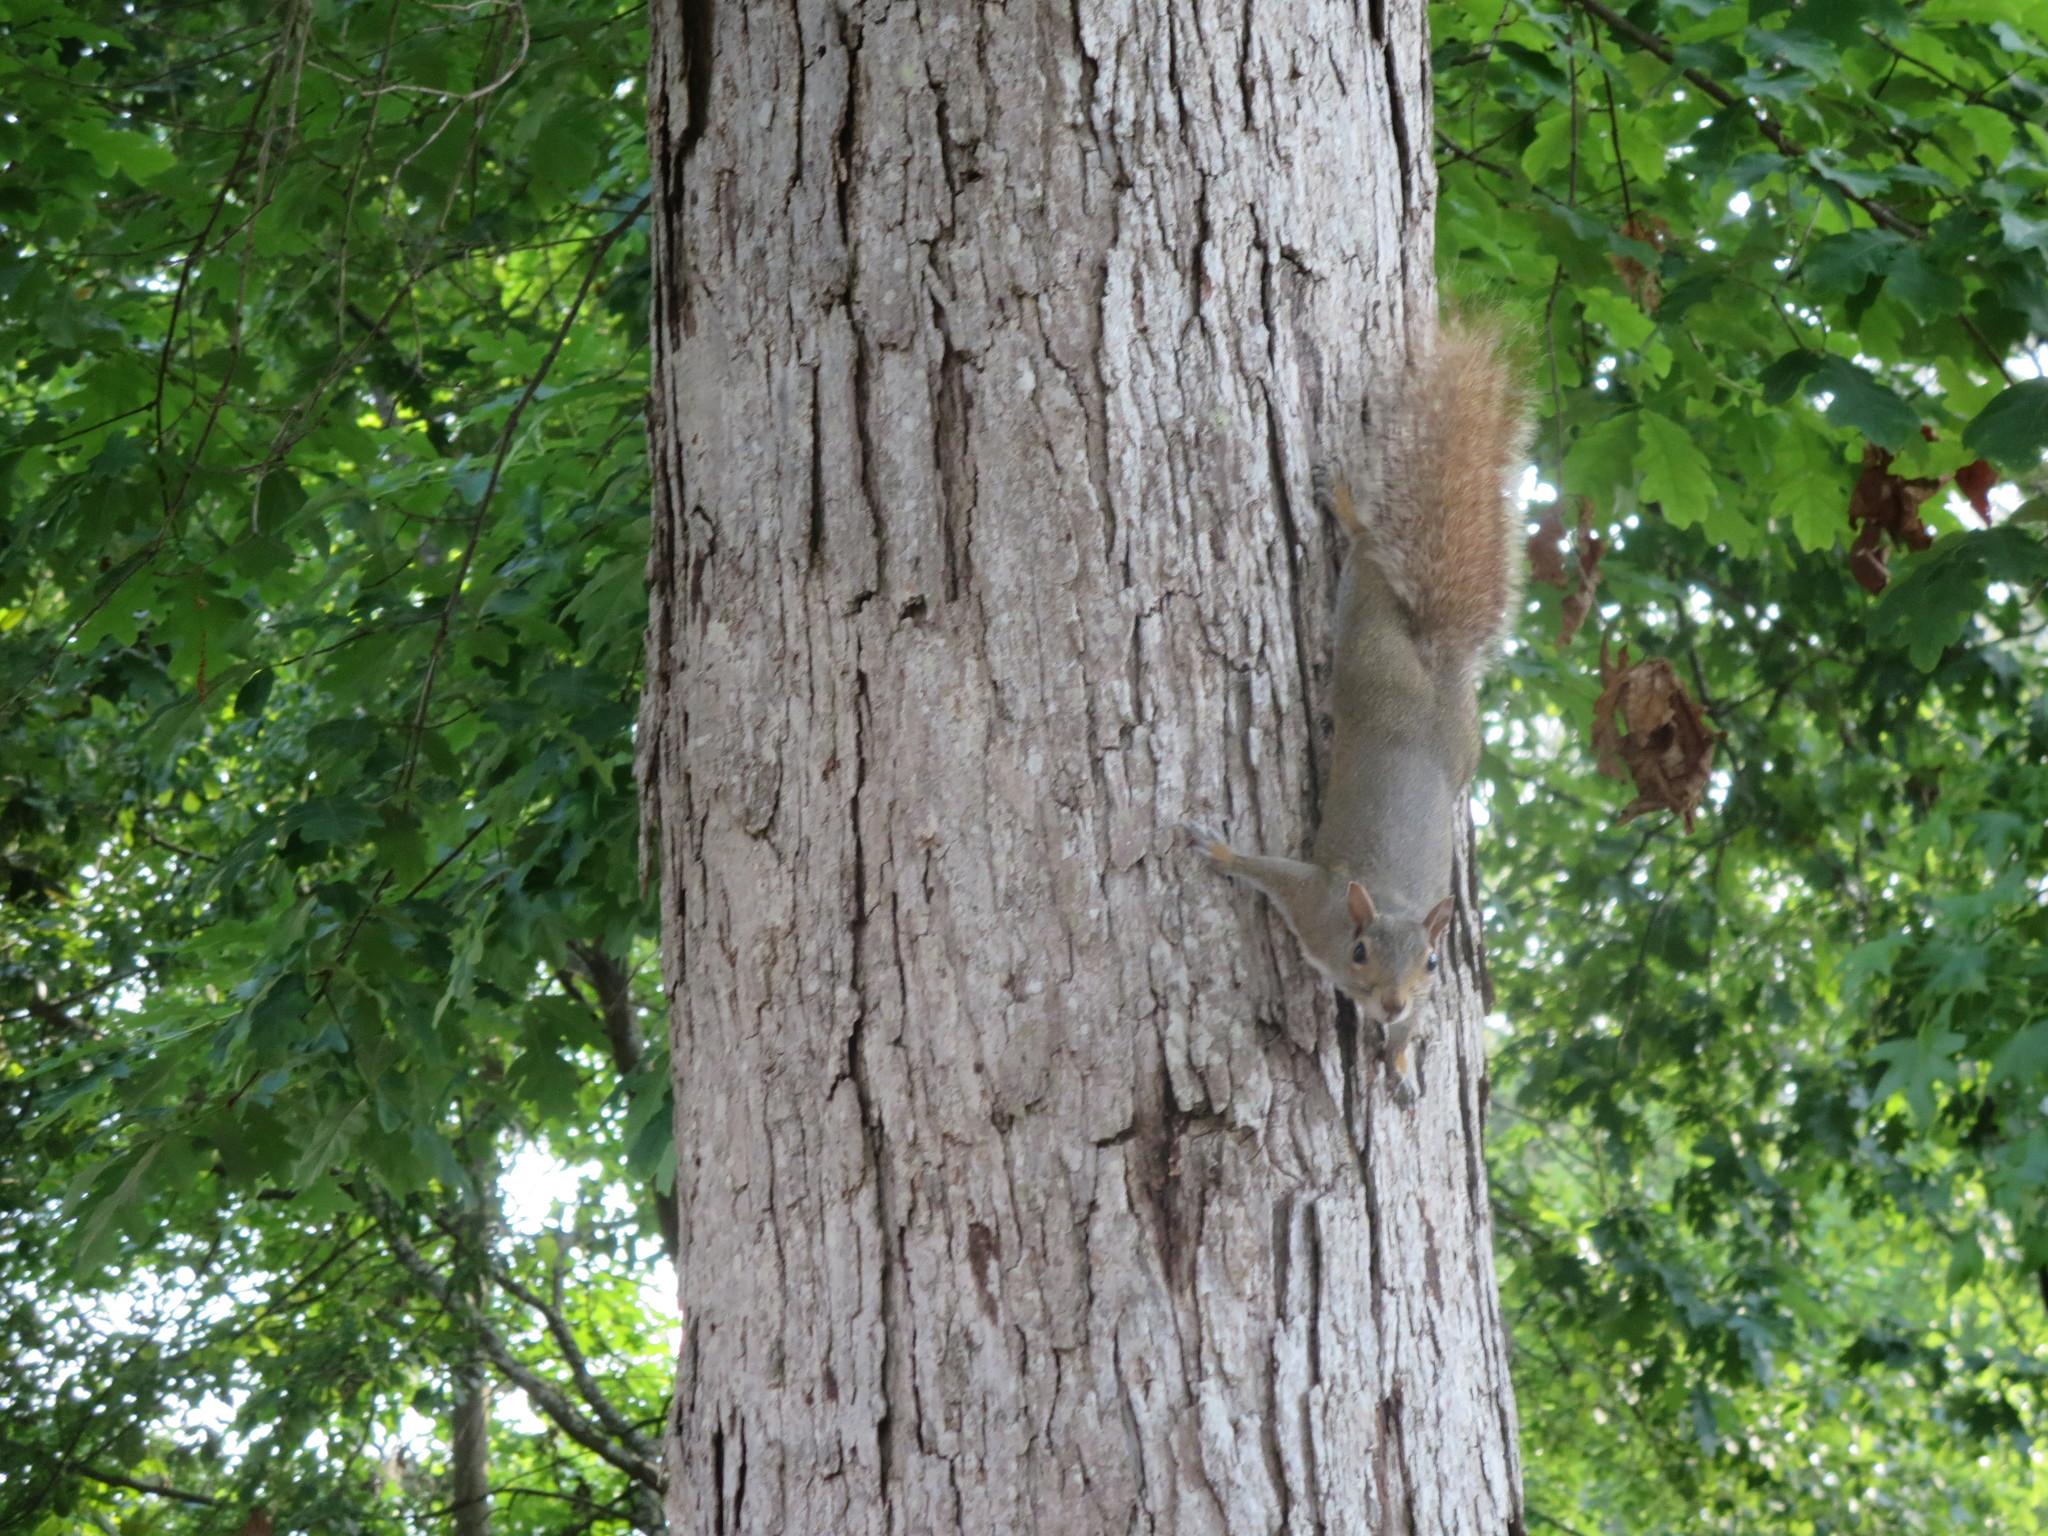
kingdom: Animalia
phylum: Chordata
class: Mammalia
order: Rodentia
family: Sciuridae
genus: Sciurus
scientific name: Sciurus carolinensis
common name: Eastern gray squirrel
